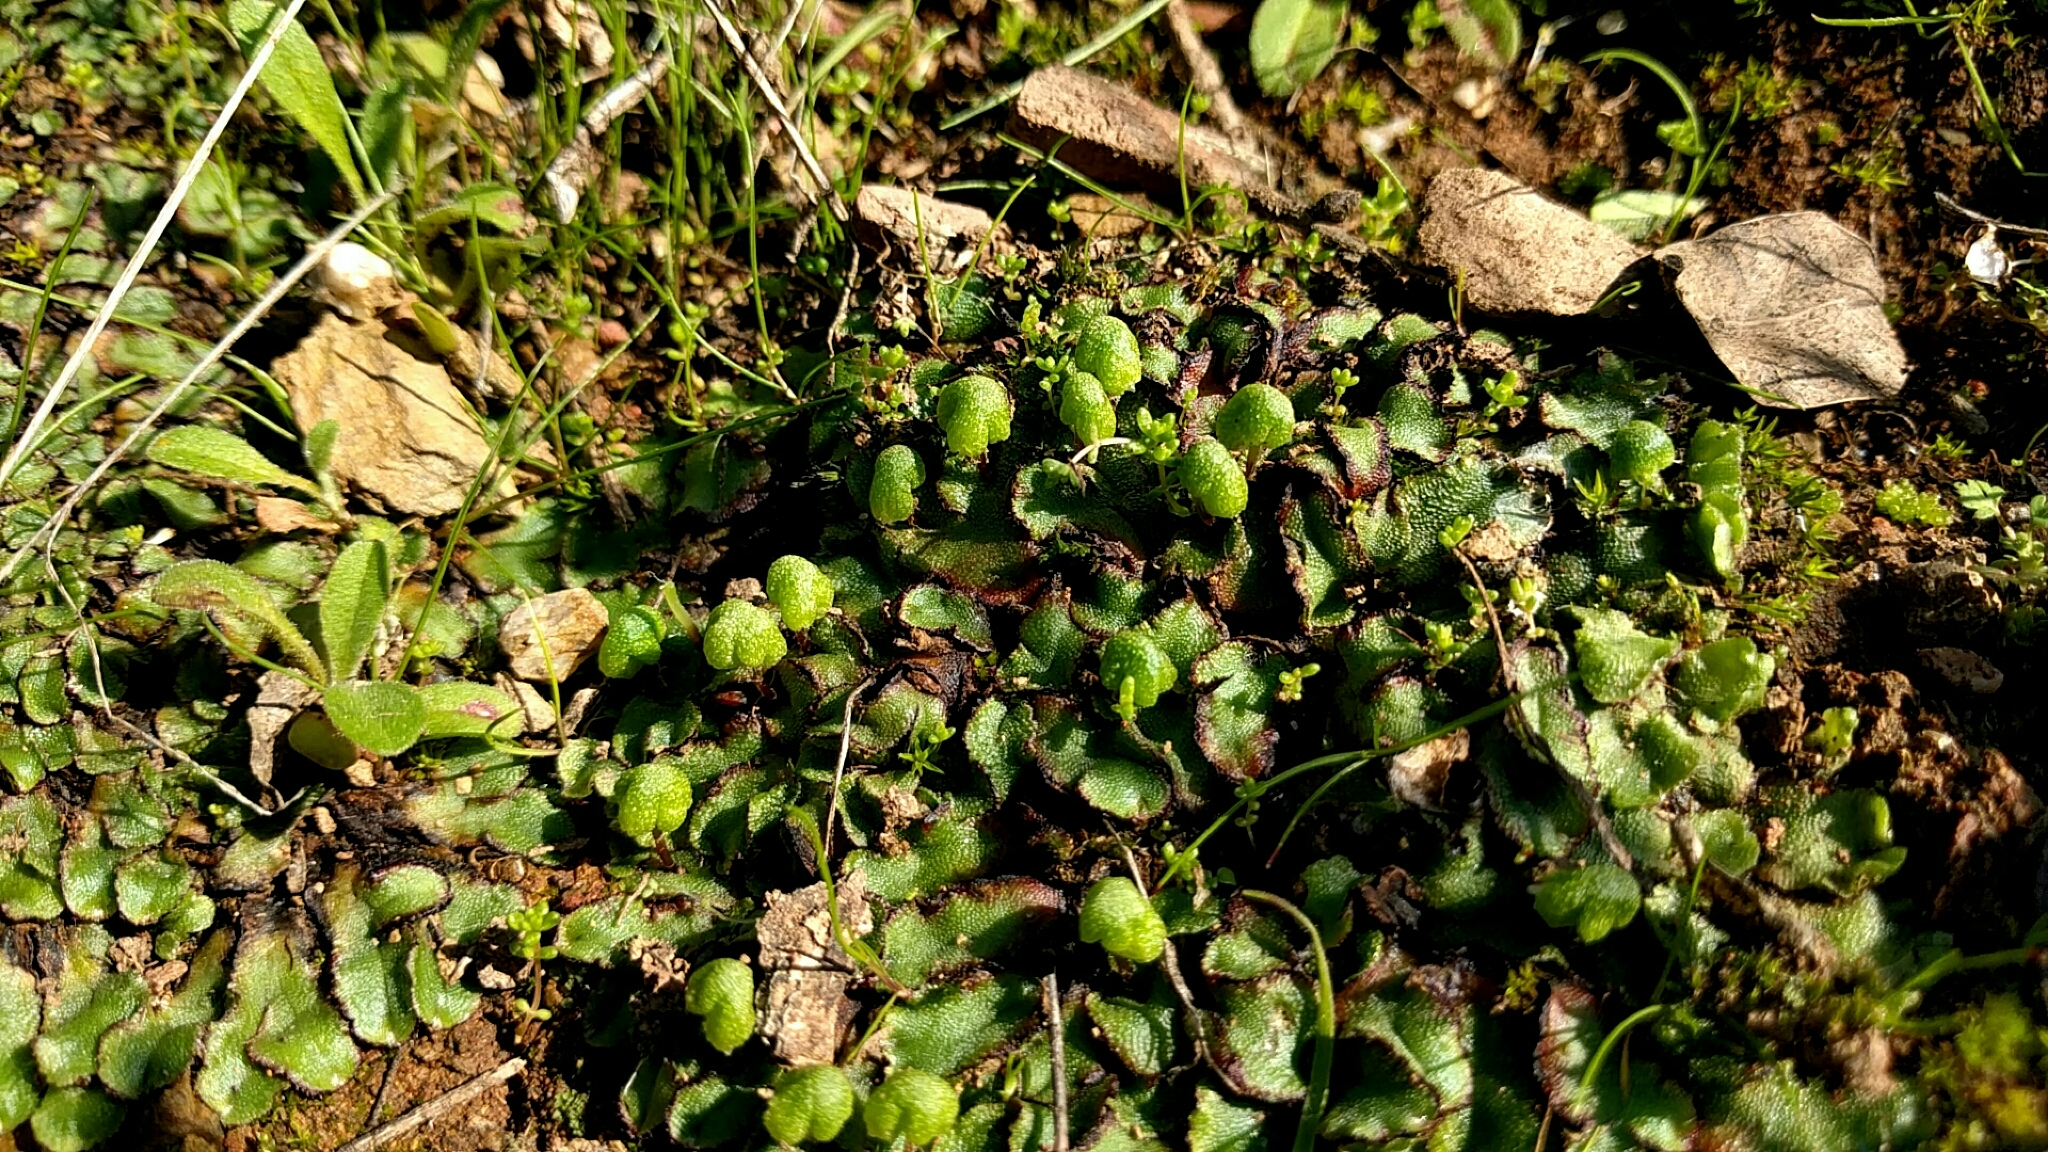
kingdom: Plantae
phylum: Marchantiophyta
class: Marchantiopsida
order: Marchantiales
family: Aytoniaceae
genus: Asterella
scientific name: Asterella californica
